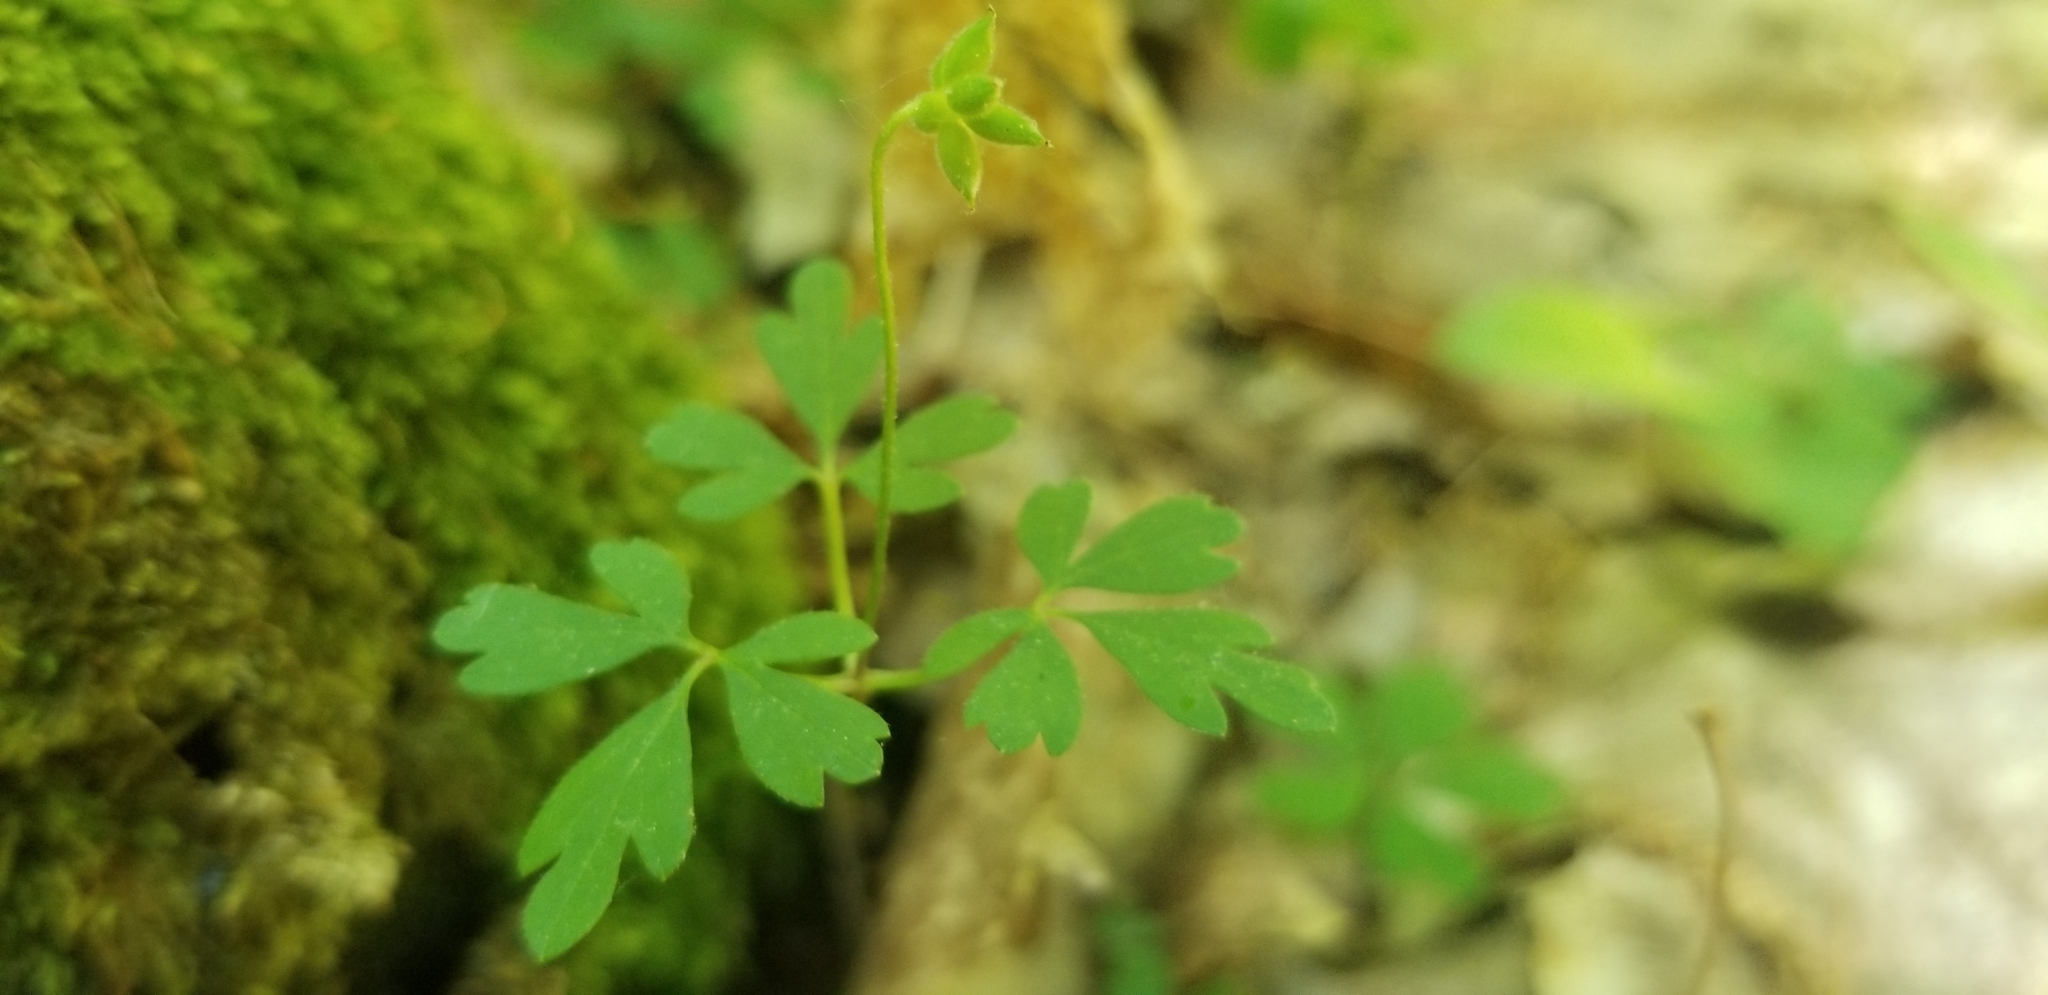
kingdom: Plantae
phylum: Tracheophyta
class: Magnoliopsida
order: Ranunculales
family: Ranunculaceae
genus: Anemone
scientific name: Anemone quinquefolia
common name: Wood anemone
